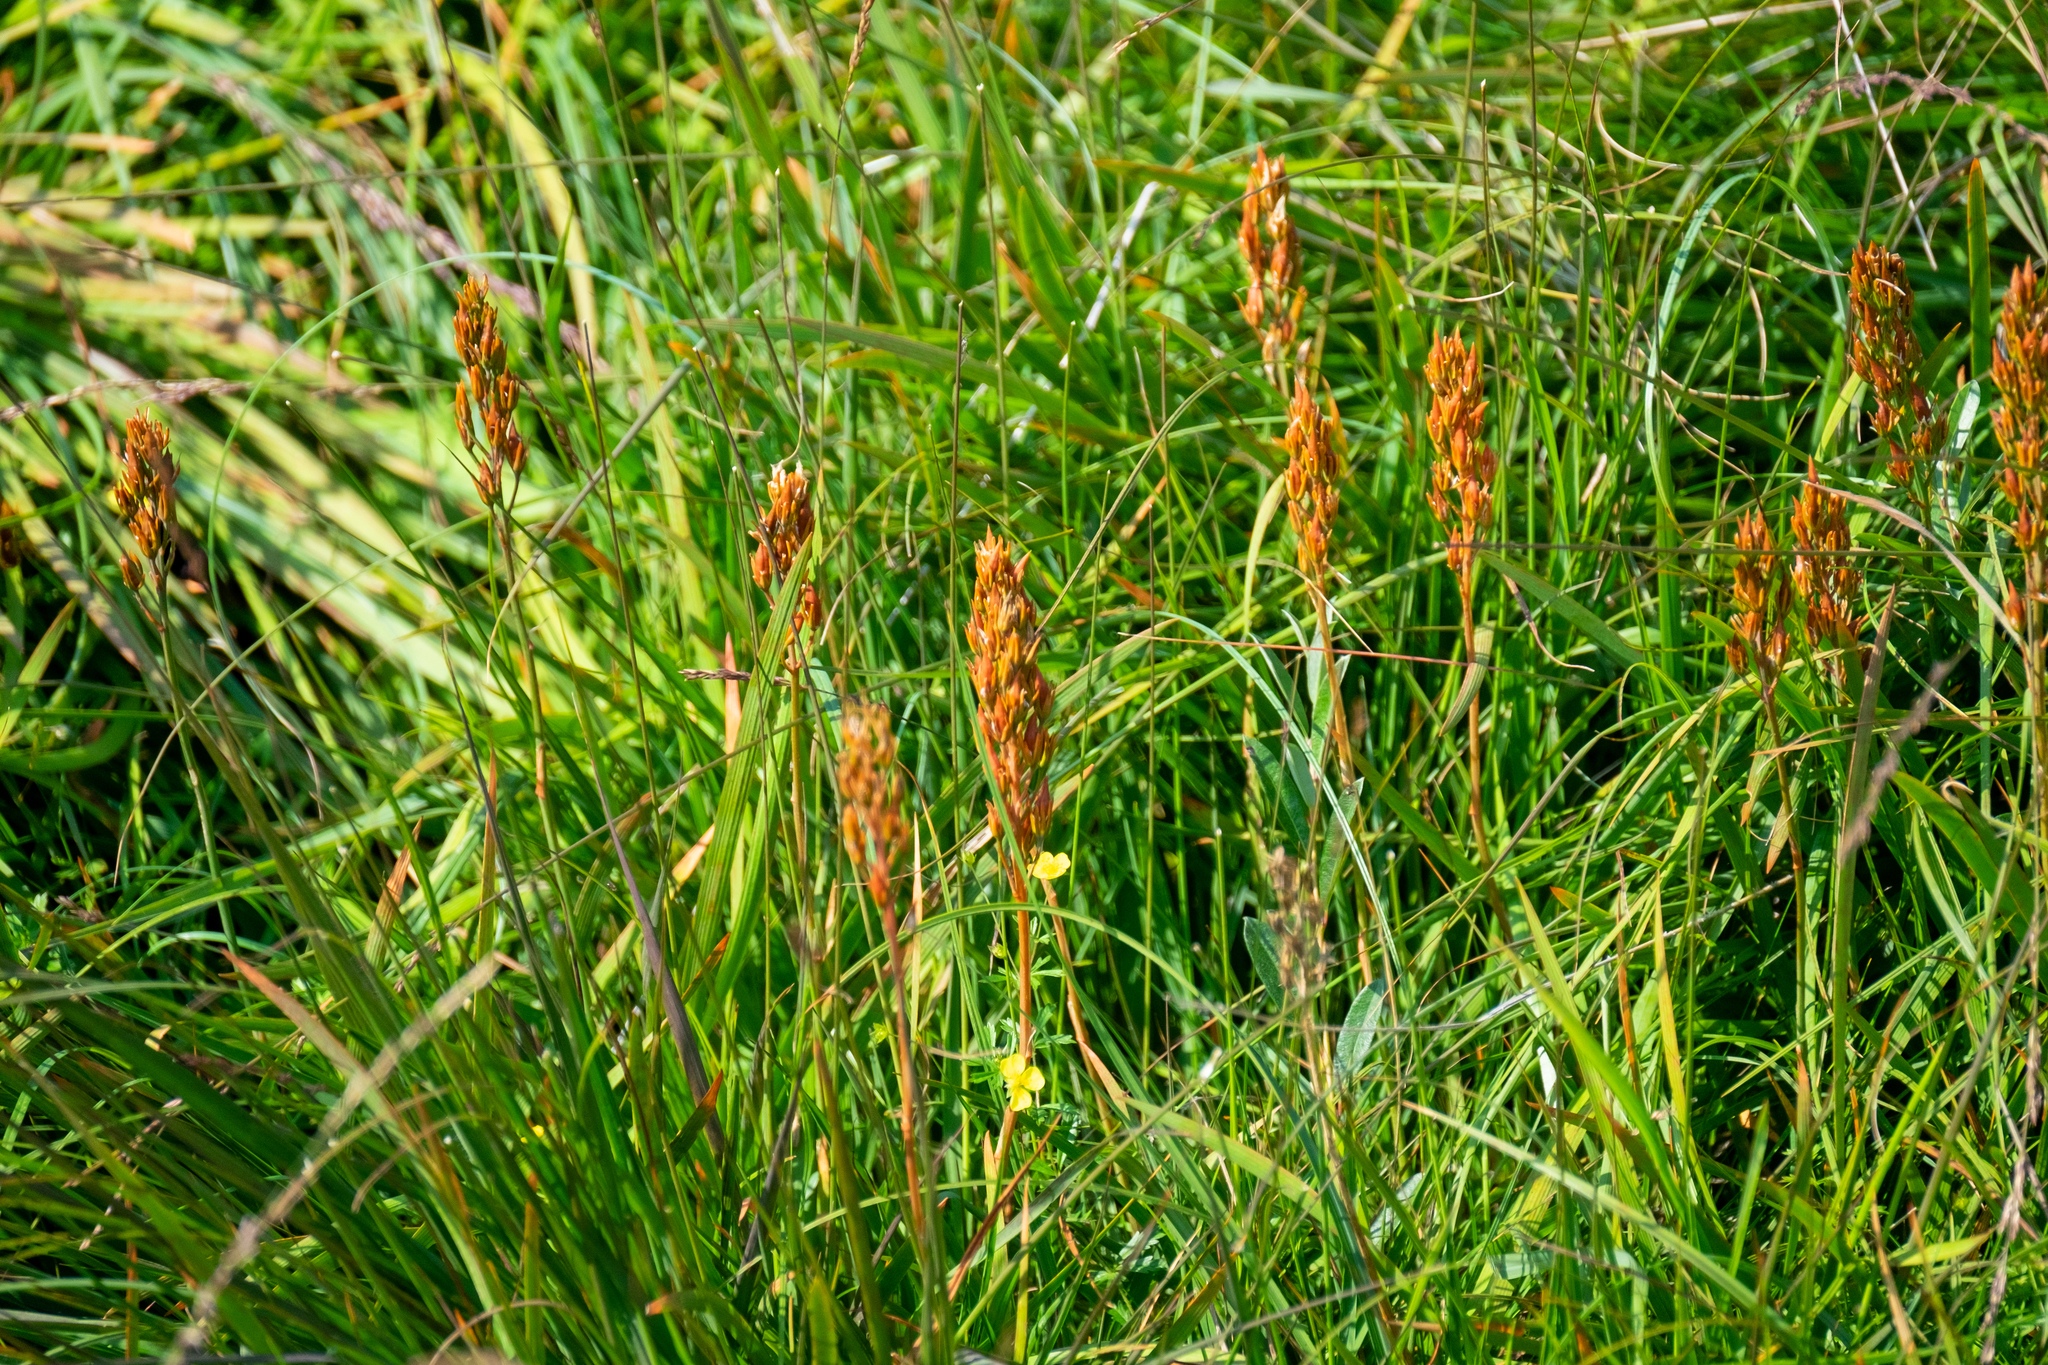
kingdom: Plantae
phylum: Tracheophyta
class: Liliopsida
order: Dioscoreales
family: Nartheciaceae
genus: Narthecium
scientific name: Narthecium ossifragum
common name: Bog asphodel
